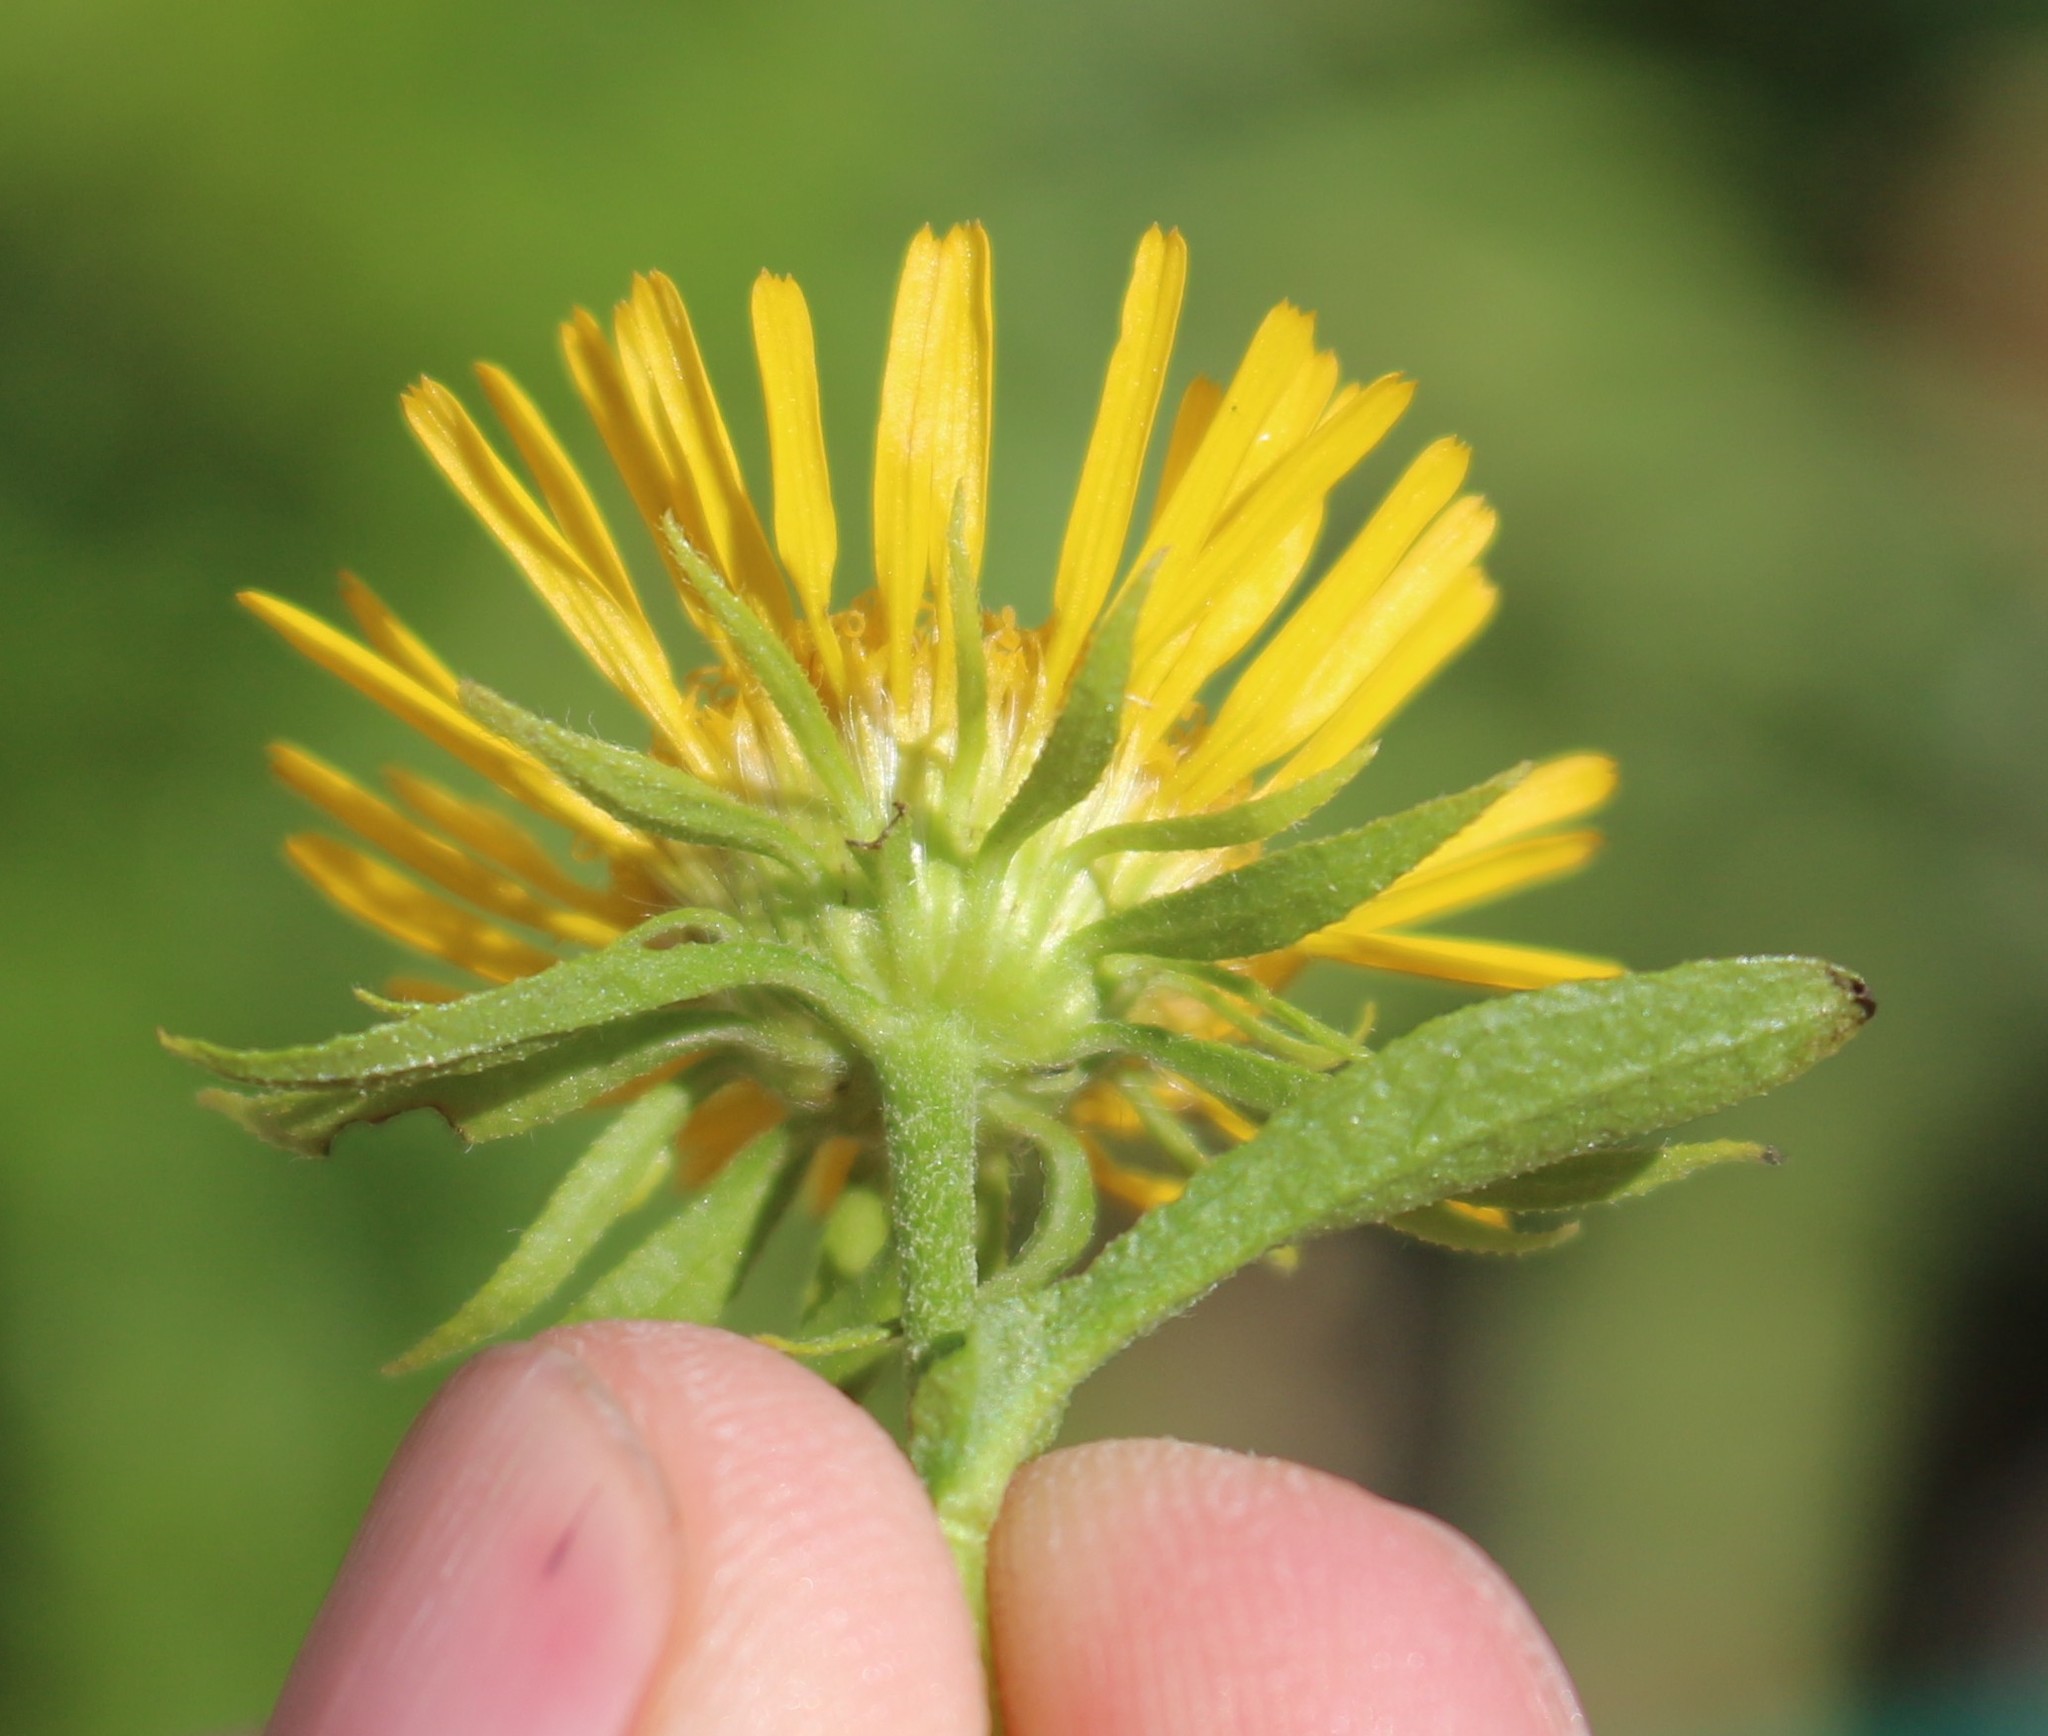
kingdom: Plantae
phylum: Tracheophyta
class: Magnoliopsida
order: Asterales
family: Asteraceae
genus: Pentanema
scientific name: Pentanema britannicum
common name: British elecampane
